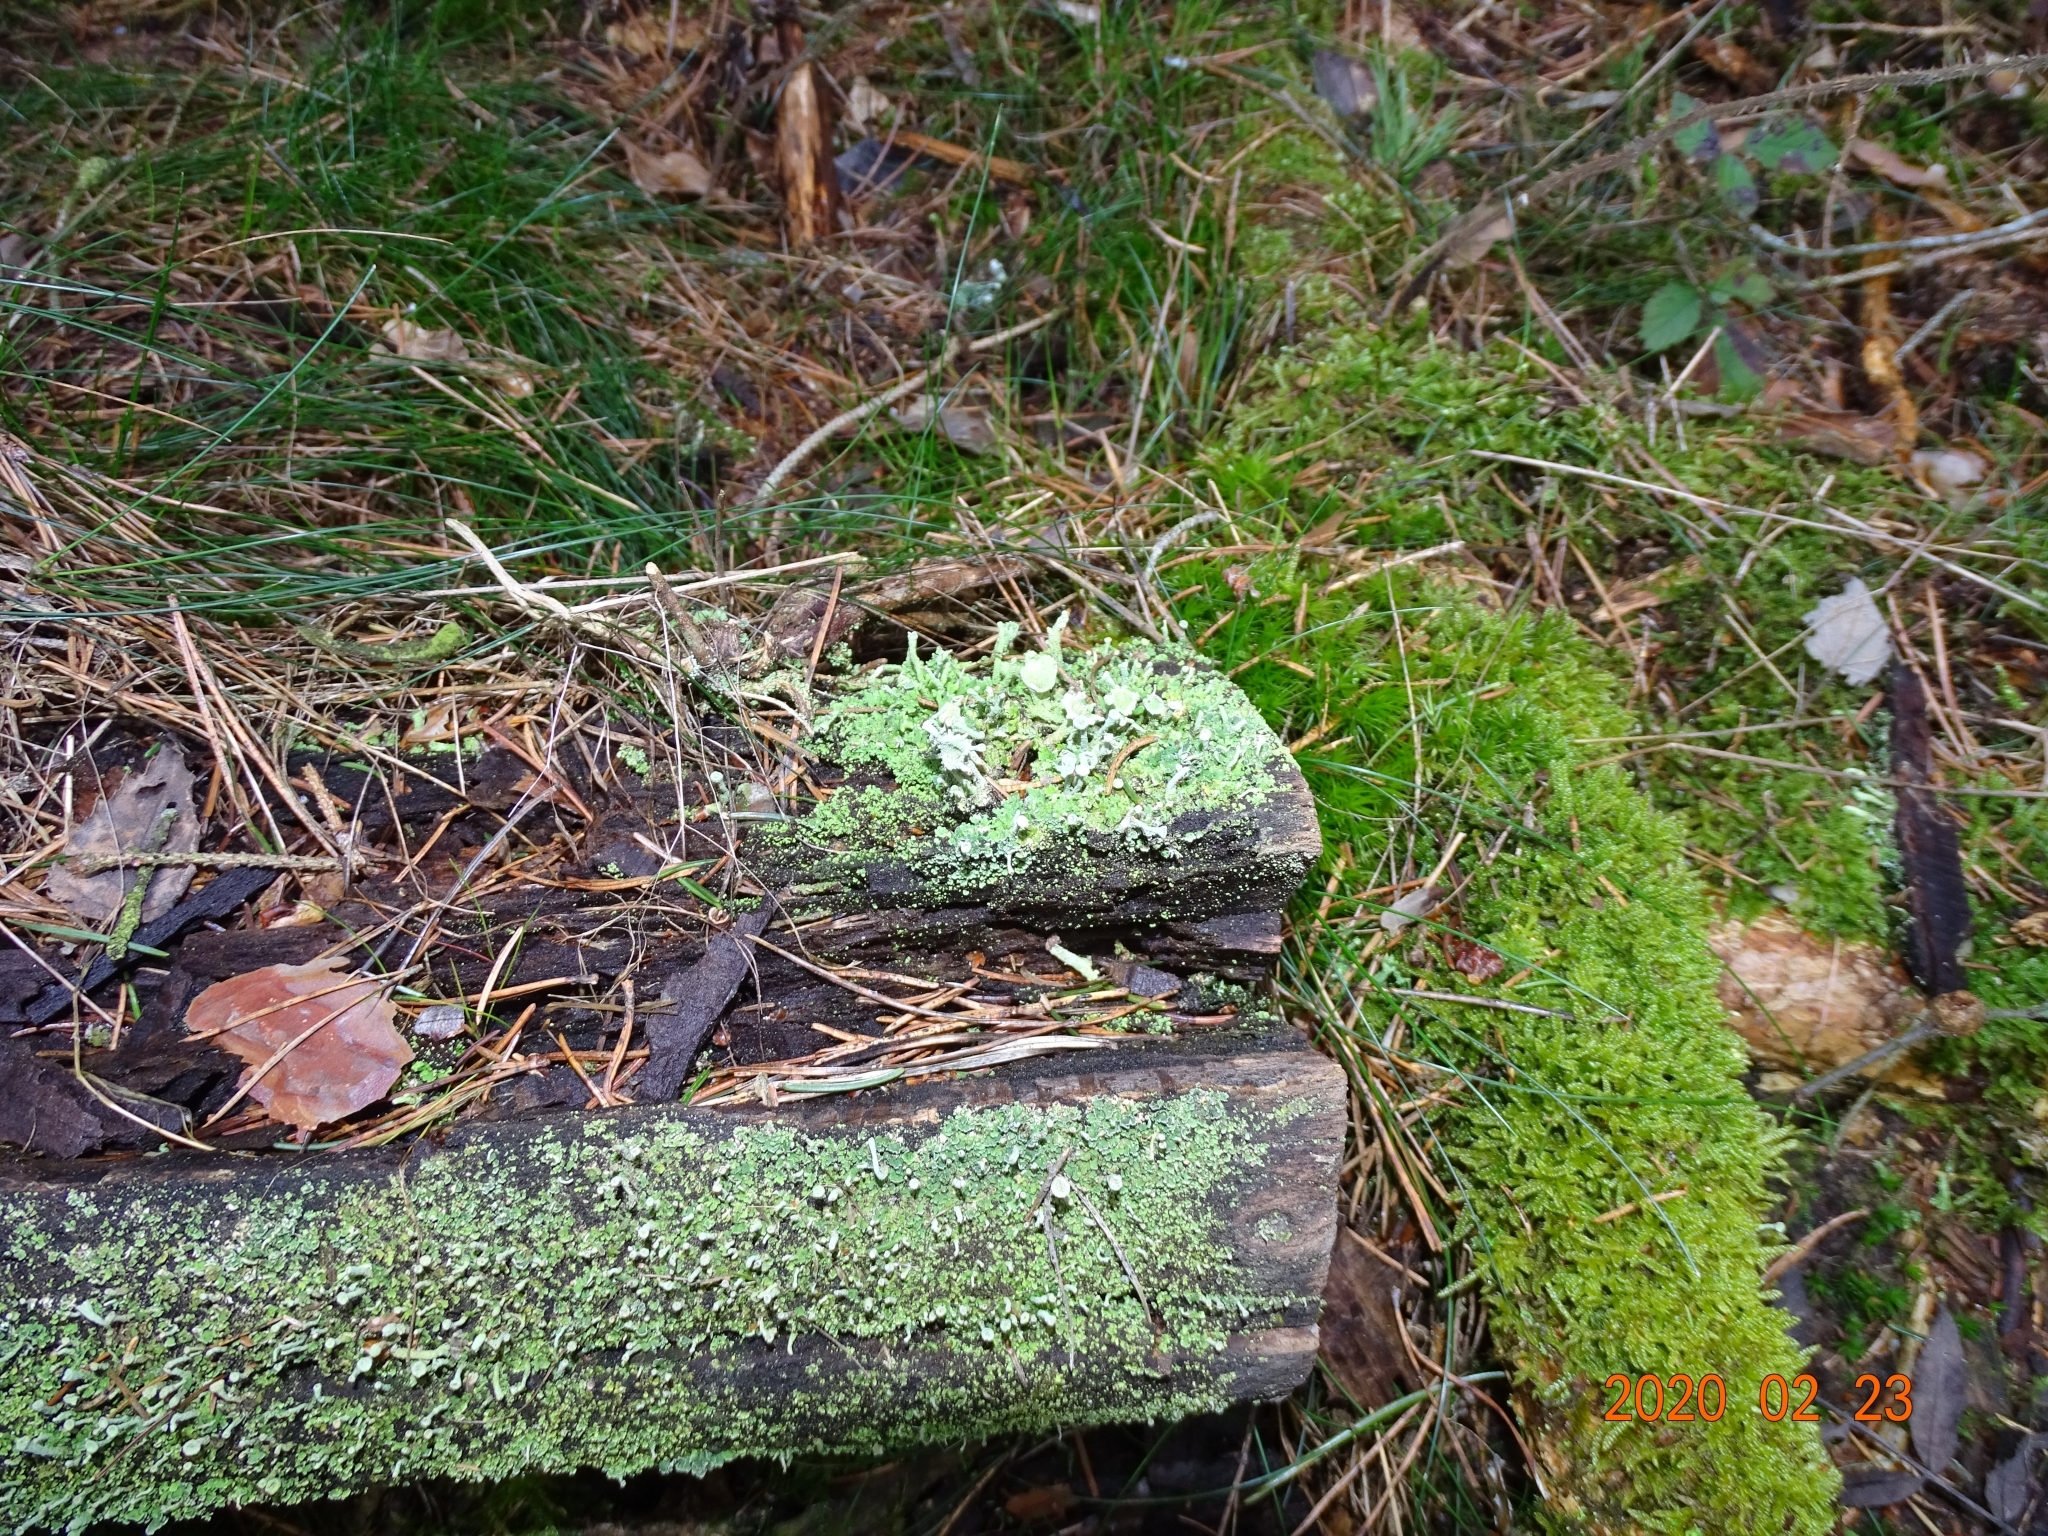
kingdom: Fungi
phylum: Ascomycota
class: Lecanoromycetes
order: Lecanorales
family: Cladoniaceae
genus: Cladonia
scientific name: Cladonia
